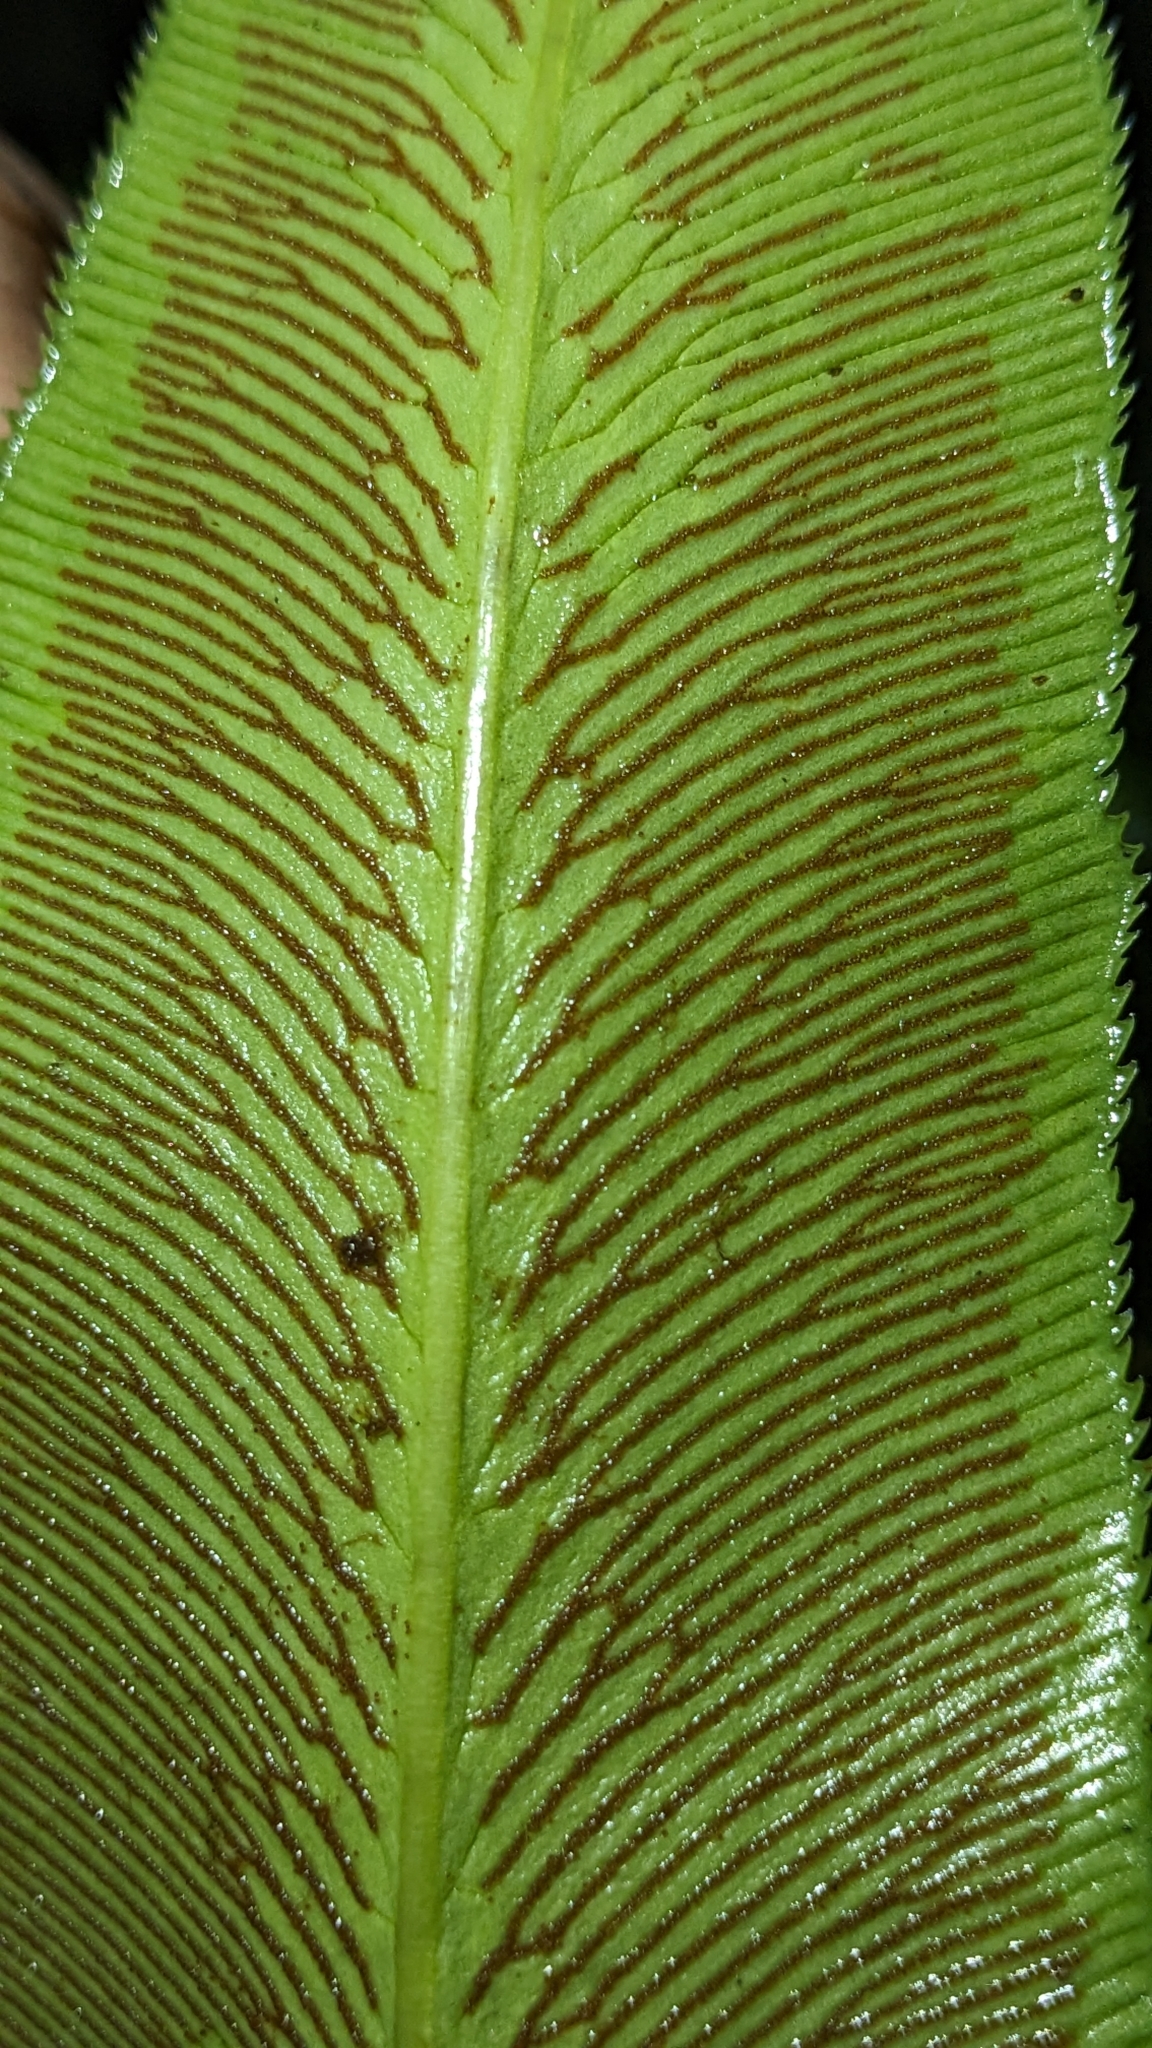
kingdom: Plantae
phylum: Tracheophyta
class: Polypodiopsida
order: Polypodiales
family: Pteridaceae
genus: Coniogramme
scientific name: Coniogramme japonica
